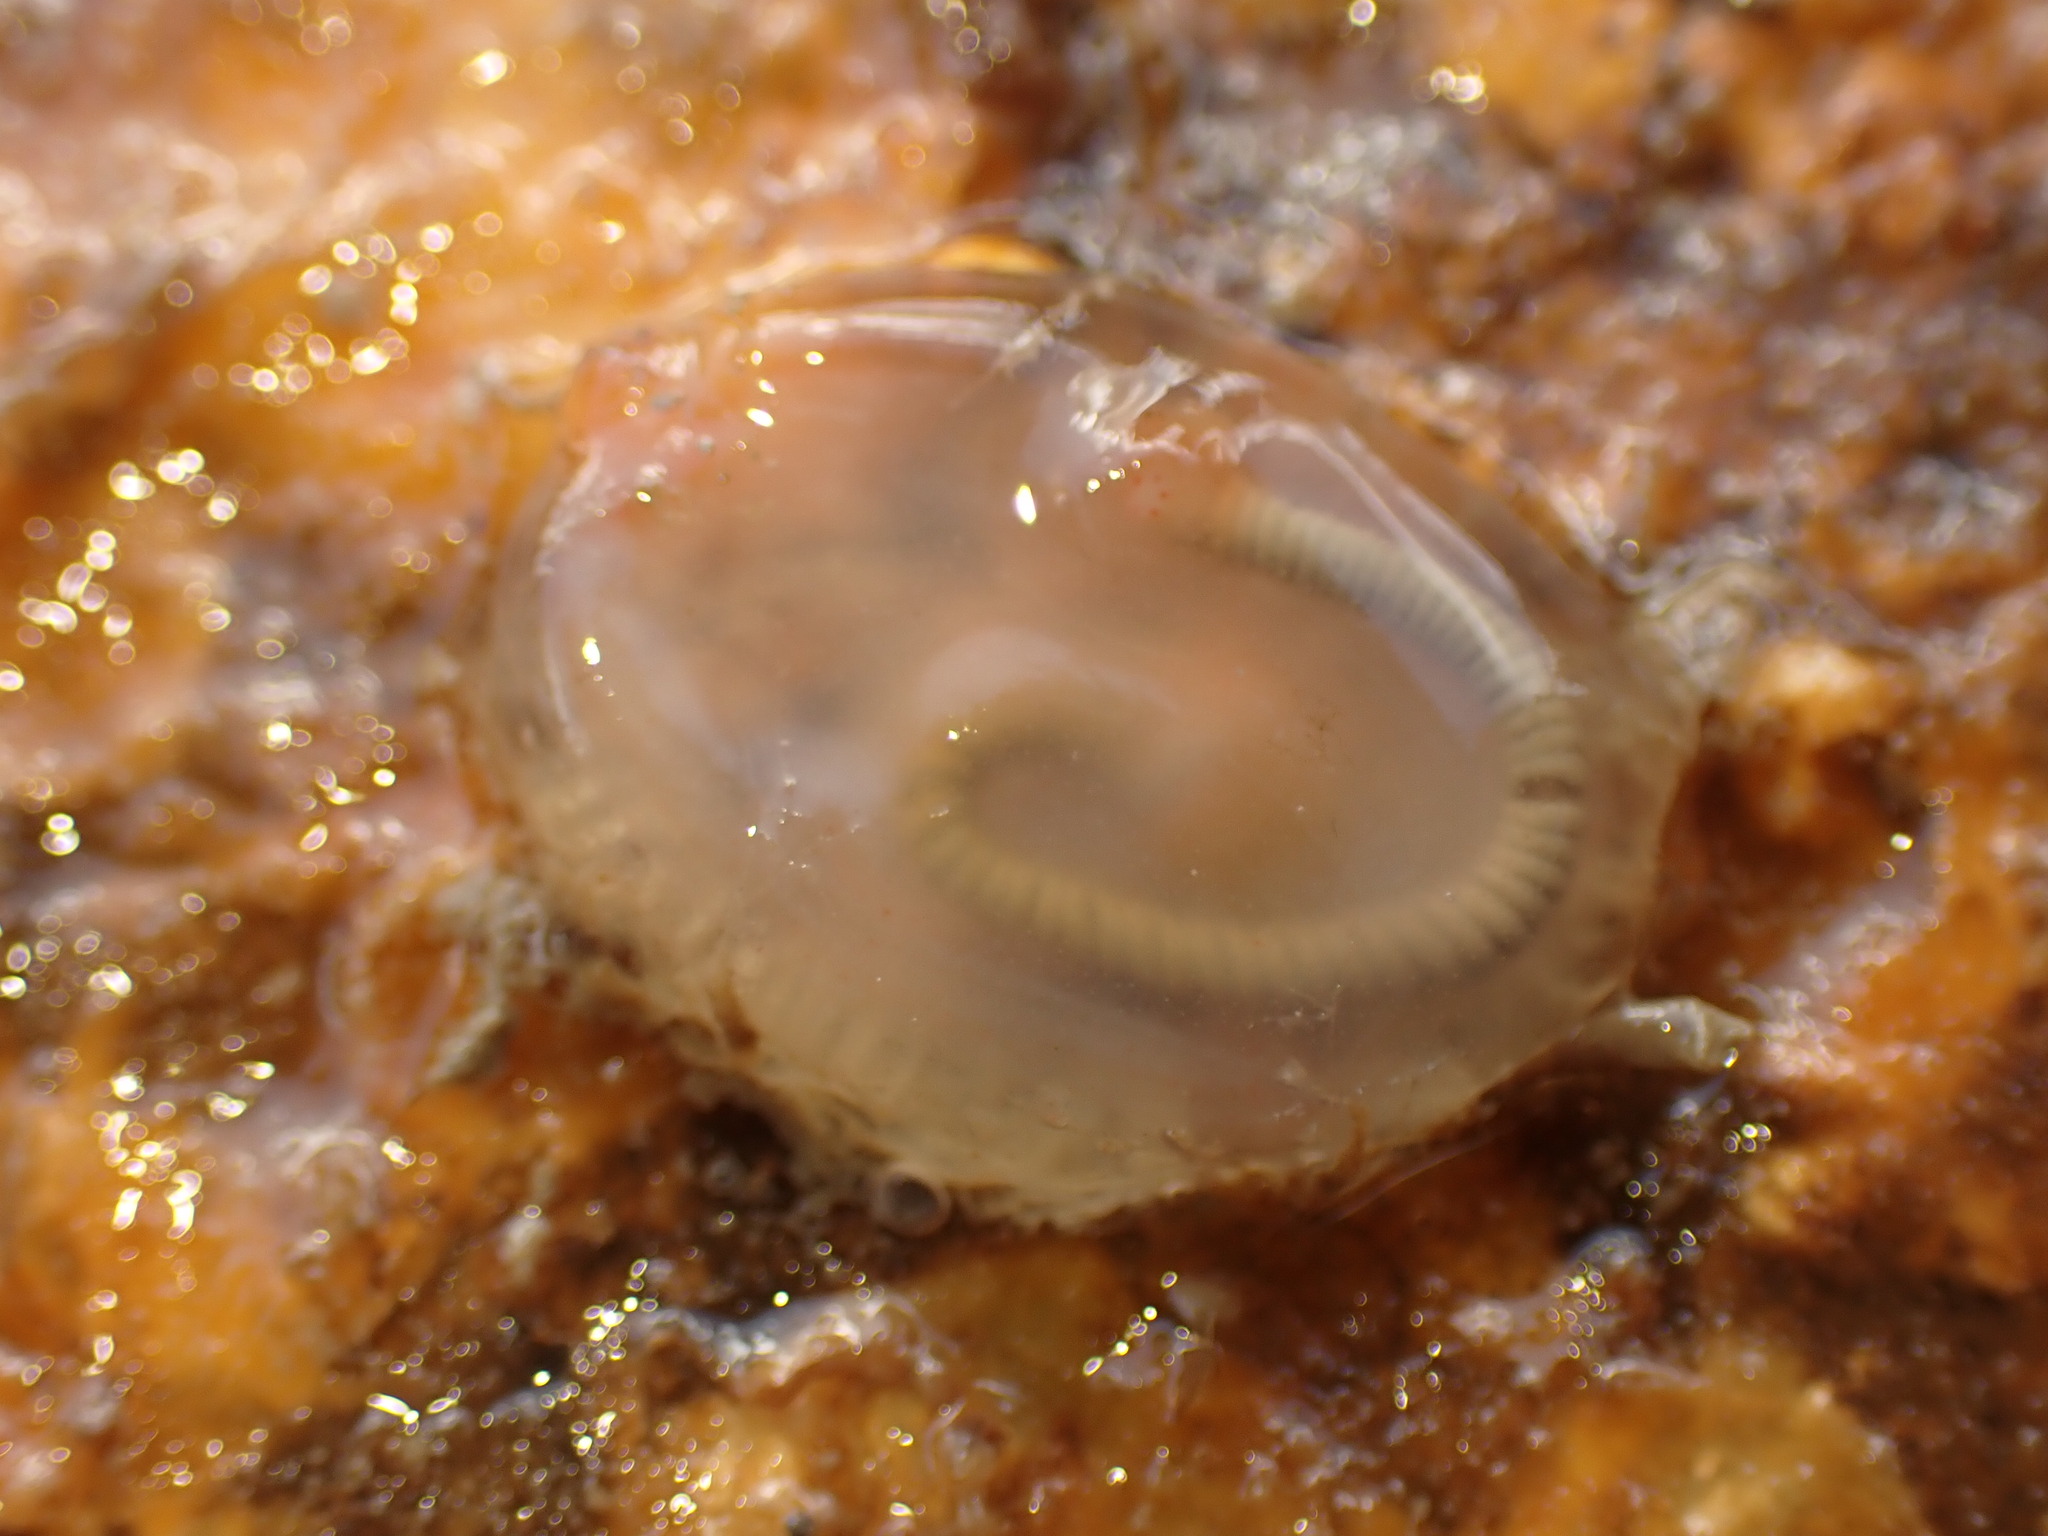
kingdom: Animalia
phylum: Chordata
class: Ascidiacea
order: Phlebobranchia
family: Agneziidae
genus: Agnezia
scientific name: Agnezia glaciata
